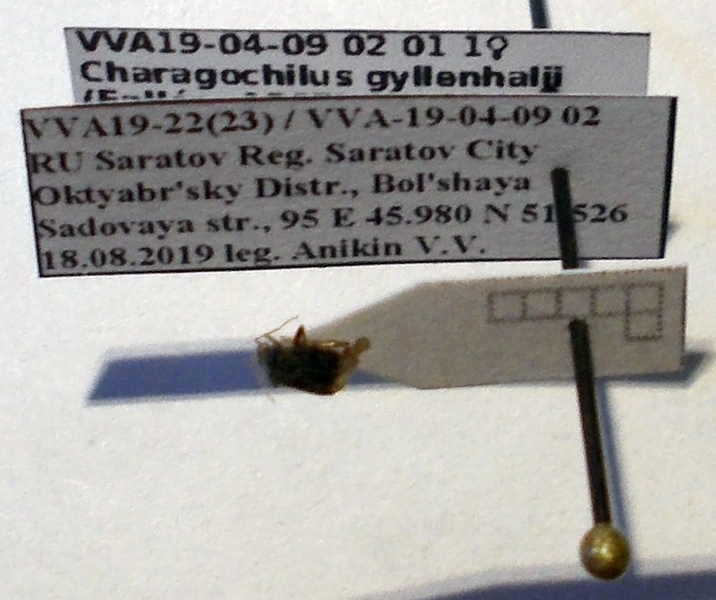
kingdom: Animalia
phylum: Arthropoda
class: Insecta
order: Hemiptera
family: Miridae
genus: Charagochilus
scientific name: Charagochilus gyllenhalii
